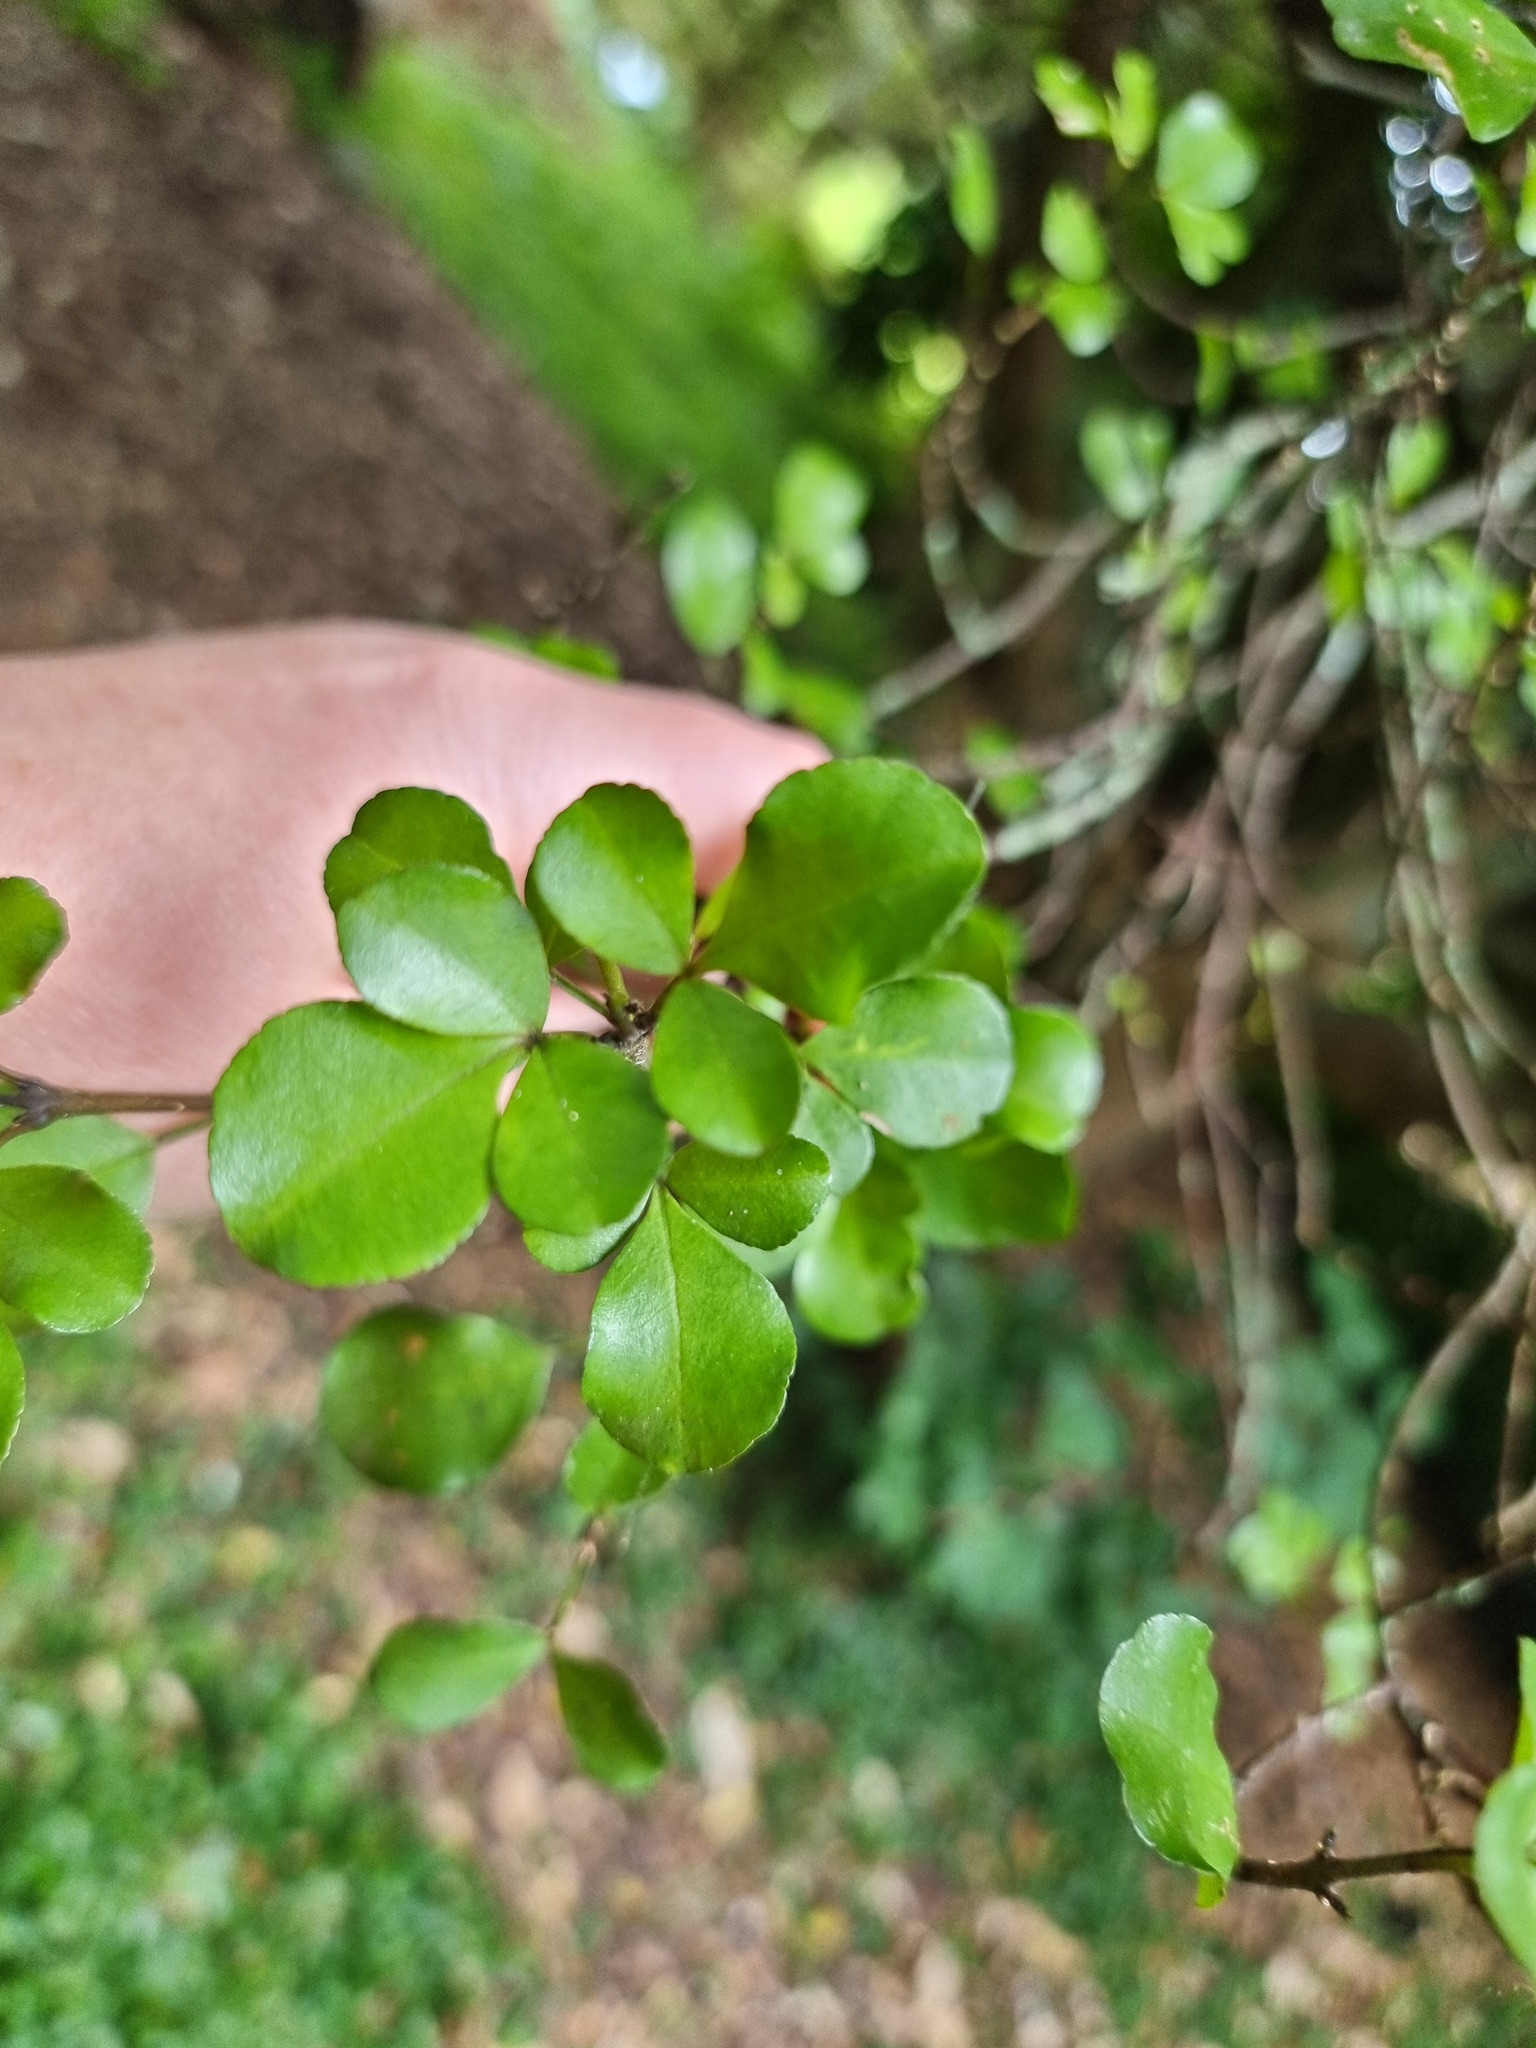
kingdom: Plantae
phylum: Tracheophyta
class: Magnoliopsida
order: Sapindales
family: Rutaceae
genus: Melicope
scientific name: Melicope ternata
